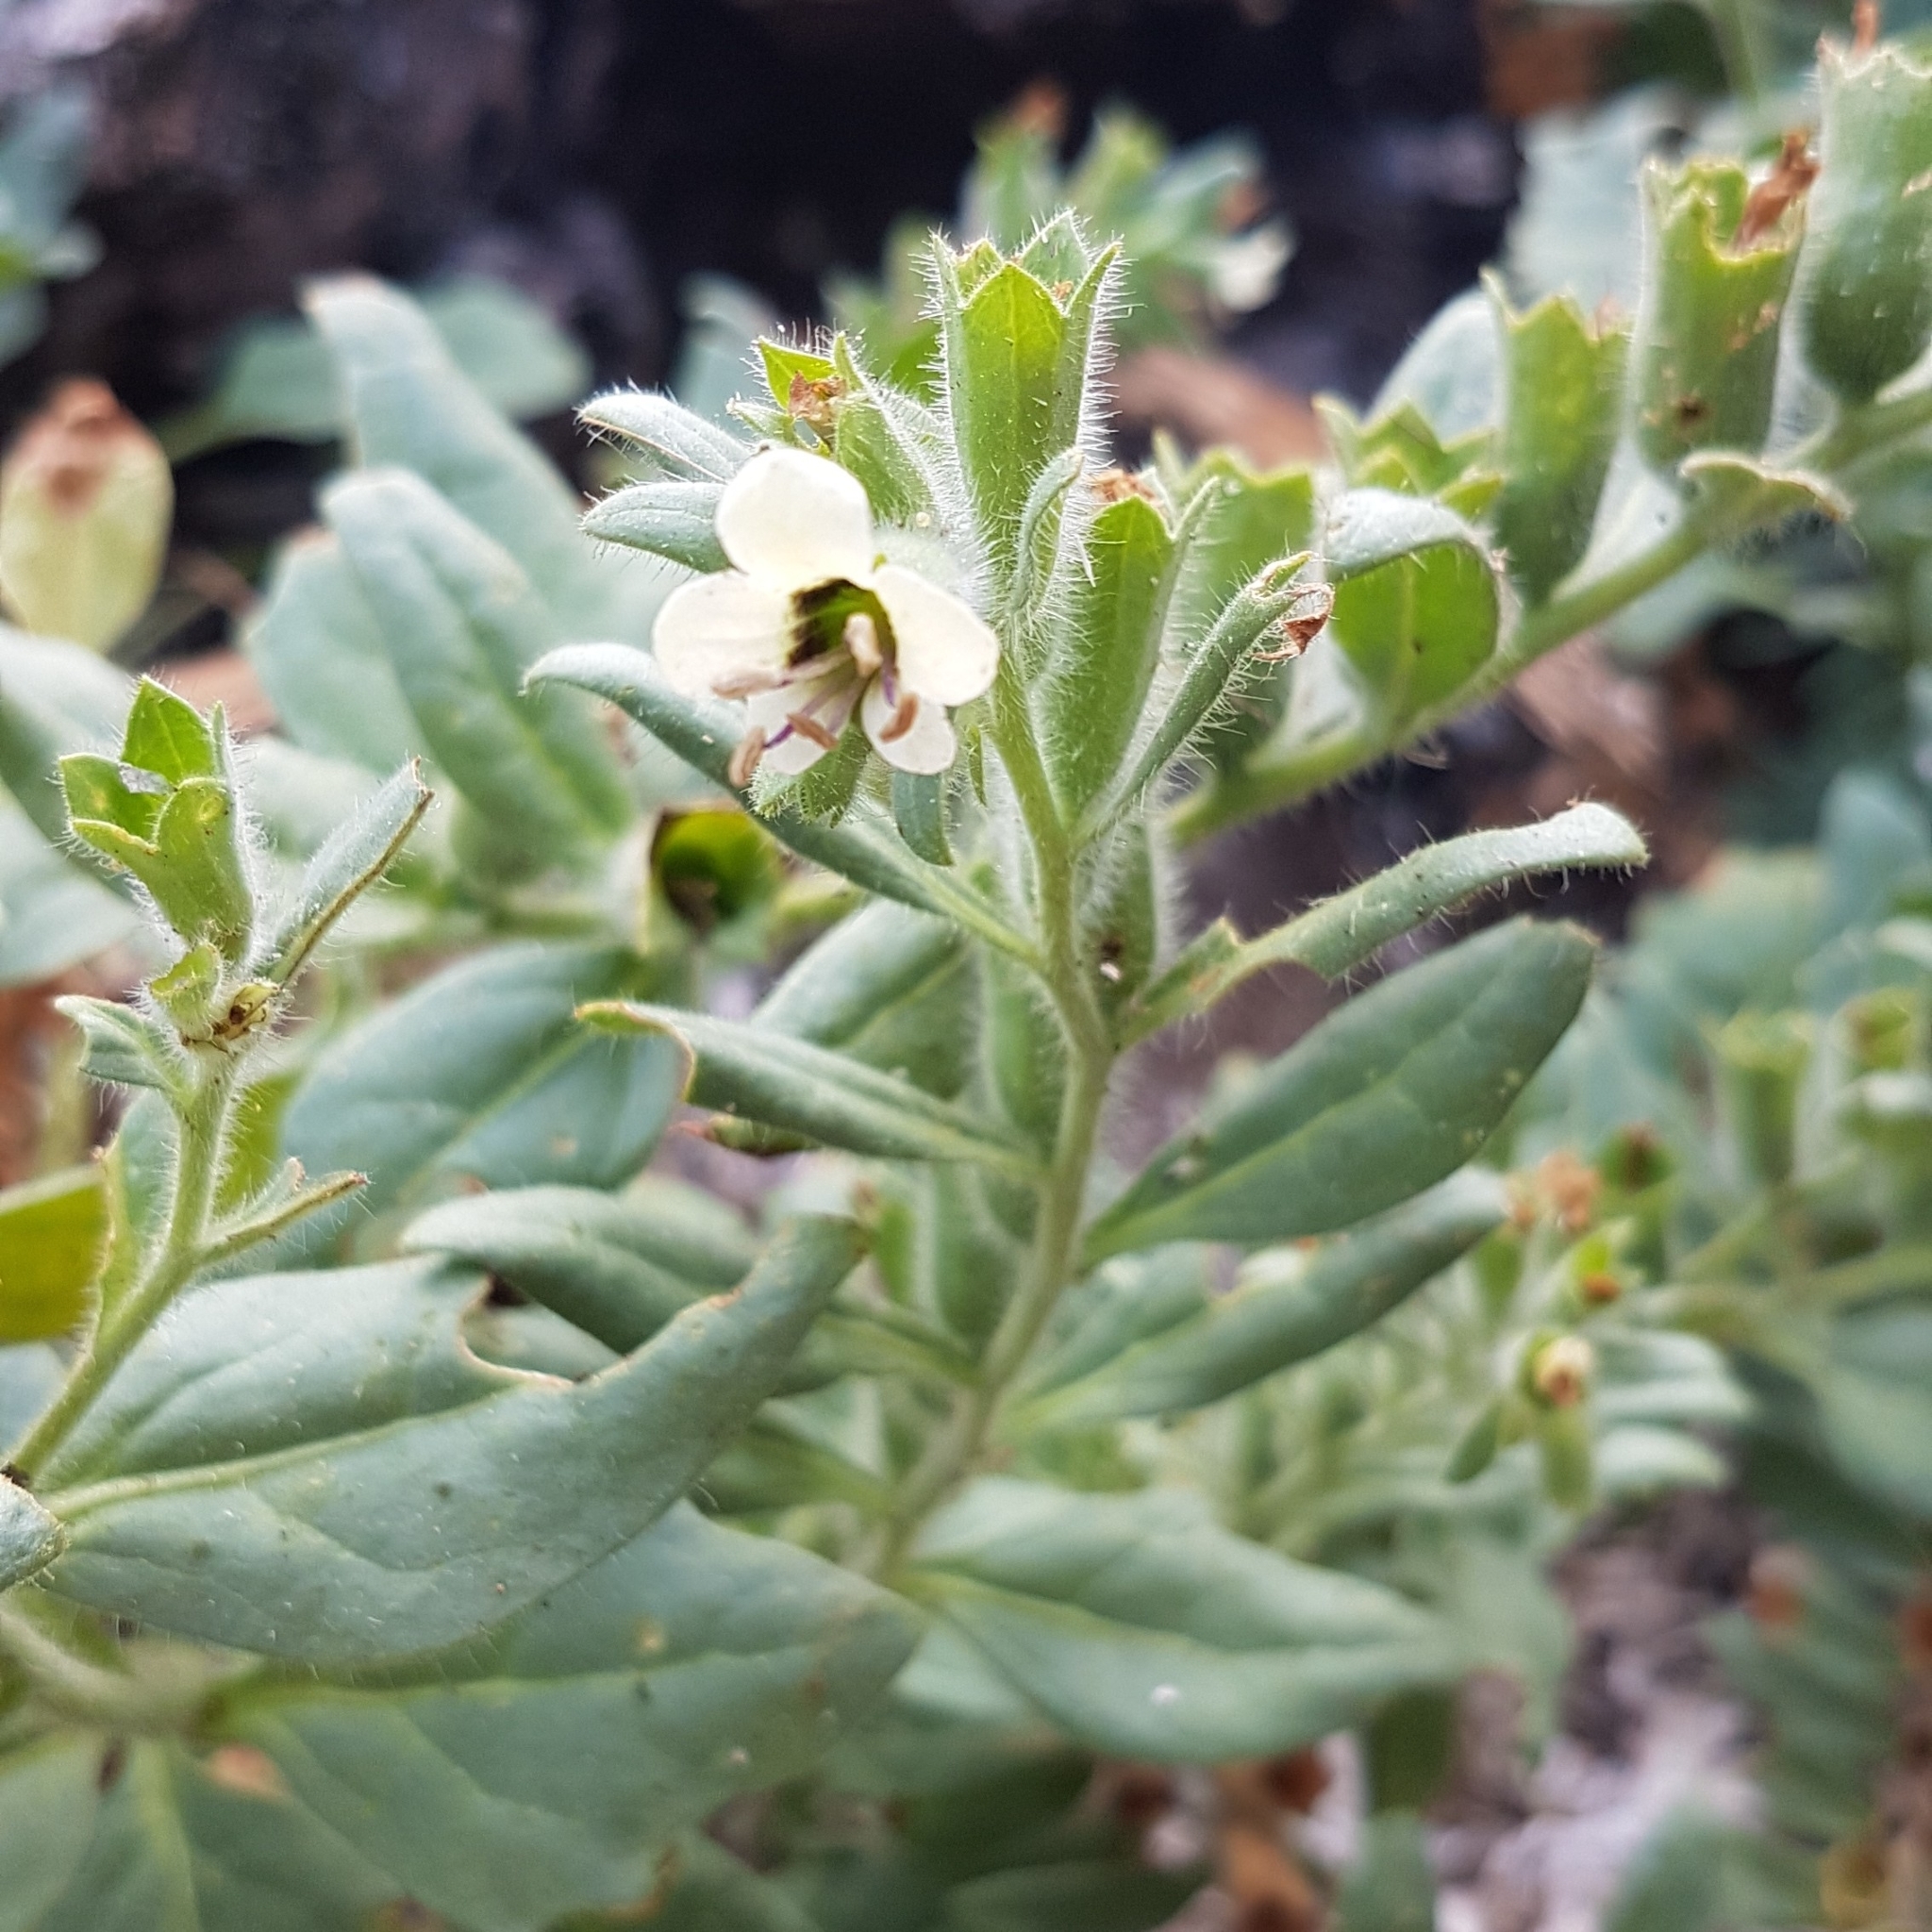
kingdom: Plantae
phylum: Tracheophyta
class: Magnoliopsida
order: Solanales
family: Solanaceae
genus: Hyoscyamus
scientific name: Hyoscyamus albus
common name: White henbane
